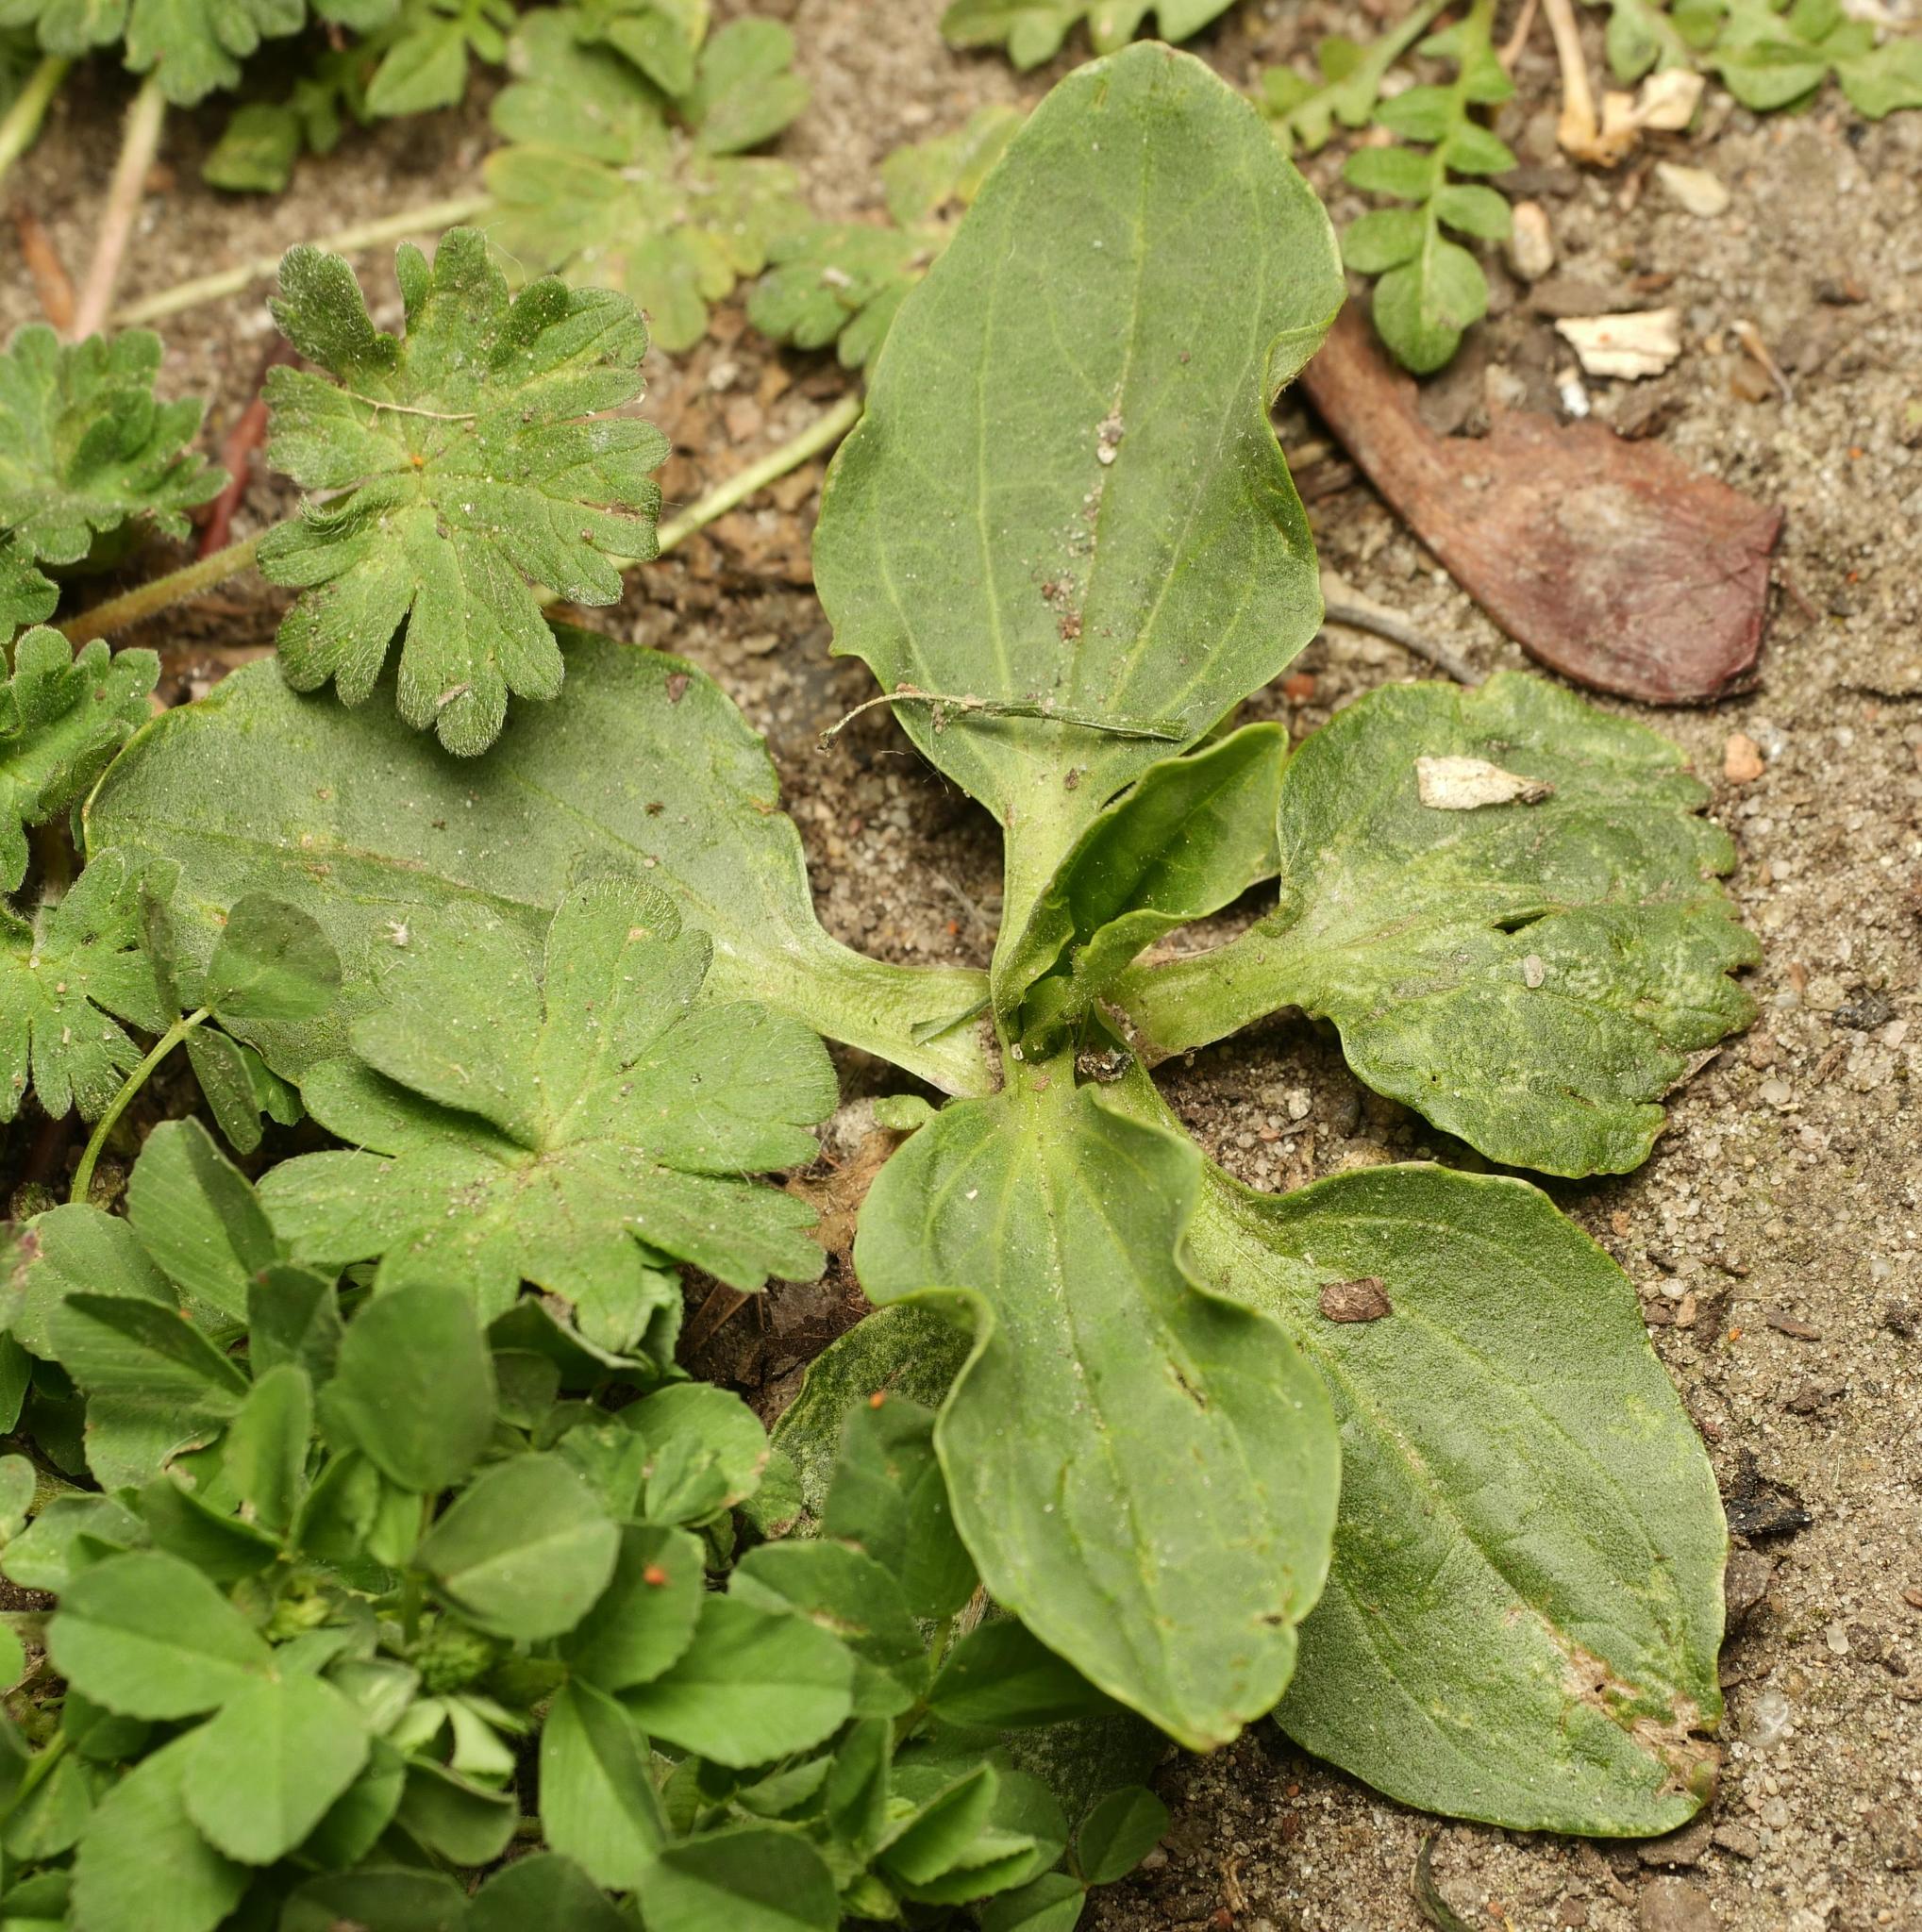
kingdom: Plantae
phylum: Tracheophyta
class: Magnoliopsida
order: Lamiales
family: Plantaginaceae
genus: Plantago
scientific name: Plantago major
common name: Common plantain
